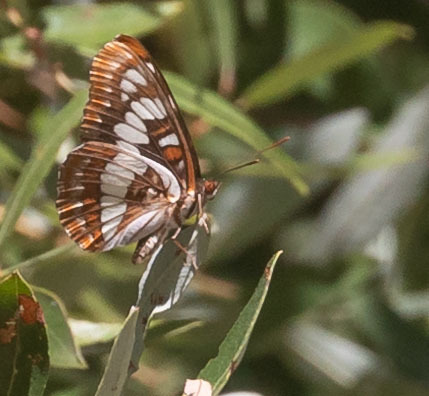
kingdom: Animalia
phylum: Arthropoda
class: Insecta
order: Lepidoptera
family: Nymphalidae
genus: Limenitis
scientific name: Limenitis lorquini
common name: Lorquin's admiral
